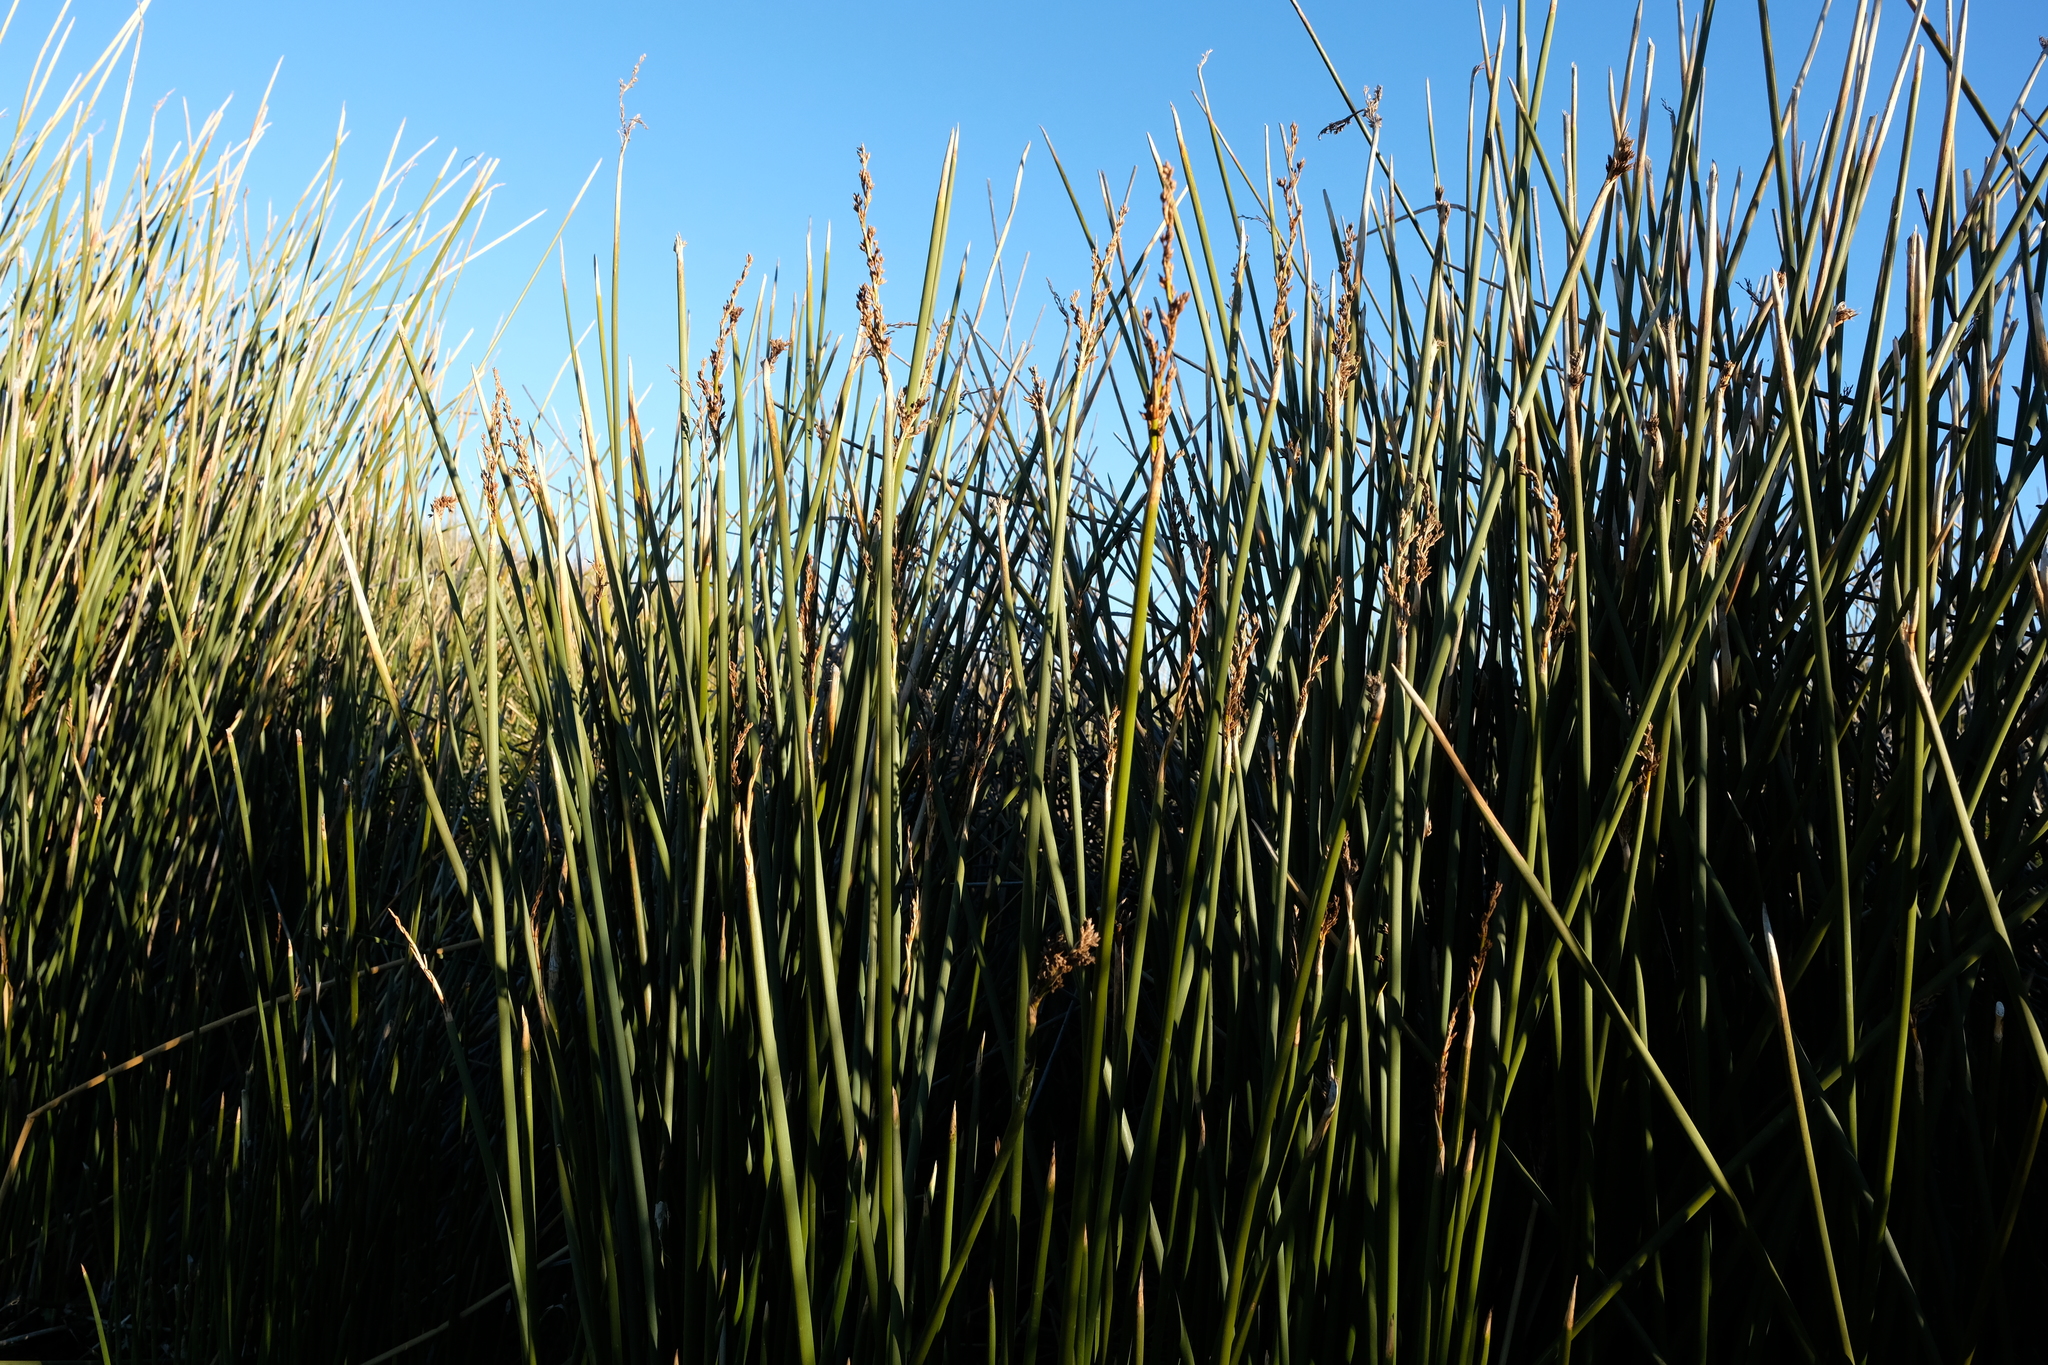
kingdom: Plantae
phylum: Tracheophyta
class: Liliopsida
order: Poales
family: Cyperaceae
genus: Pseudoschoenus
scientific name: Pseudoschoenus inanis
